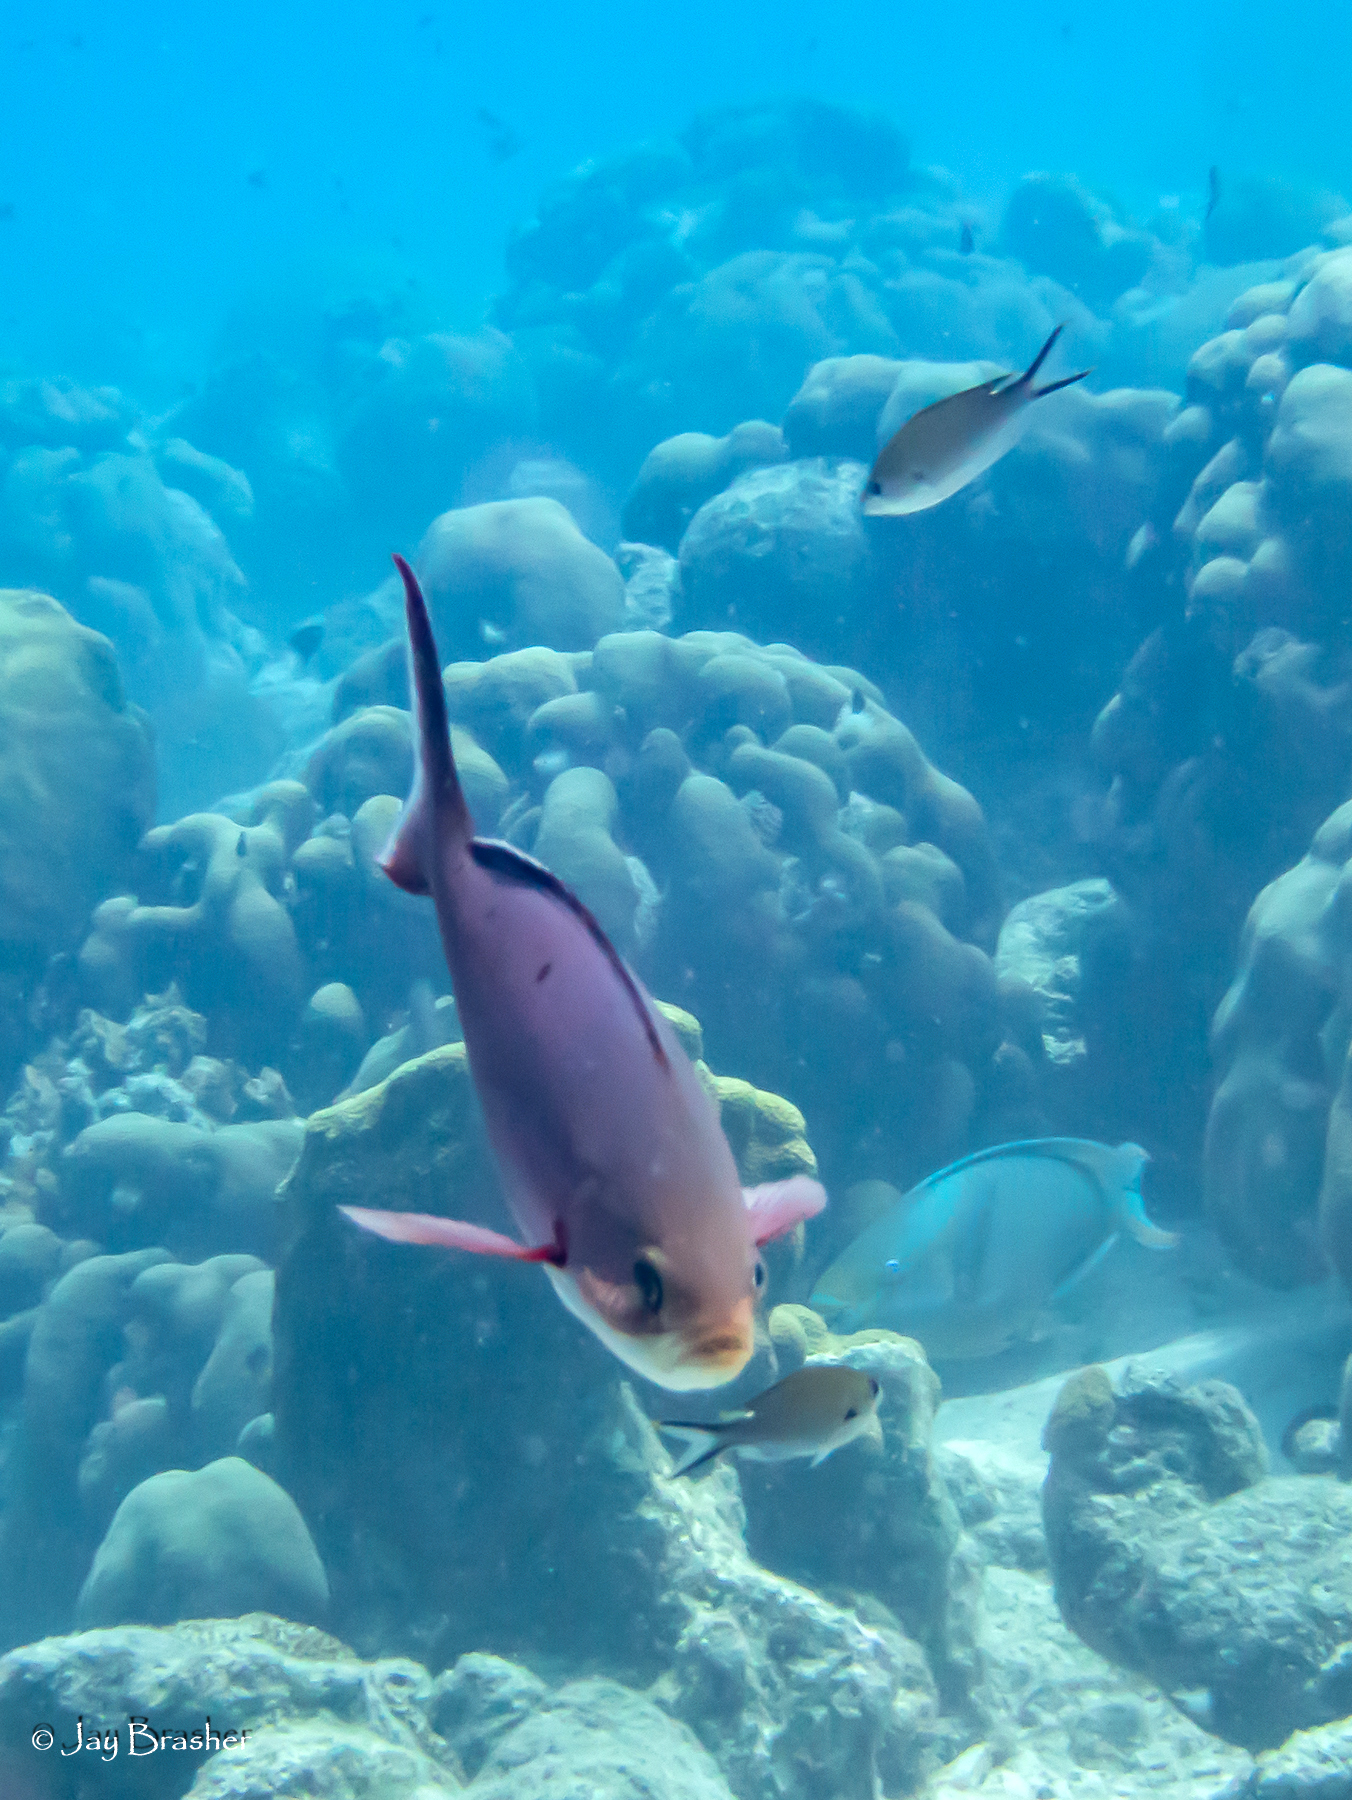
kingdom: Animalia
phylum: Chordata
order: Perciformes
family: Serranidae
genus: Paranthias
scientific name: Paranthias furcifer
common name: Creole-fish
